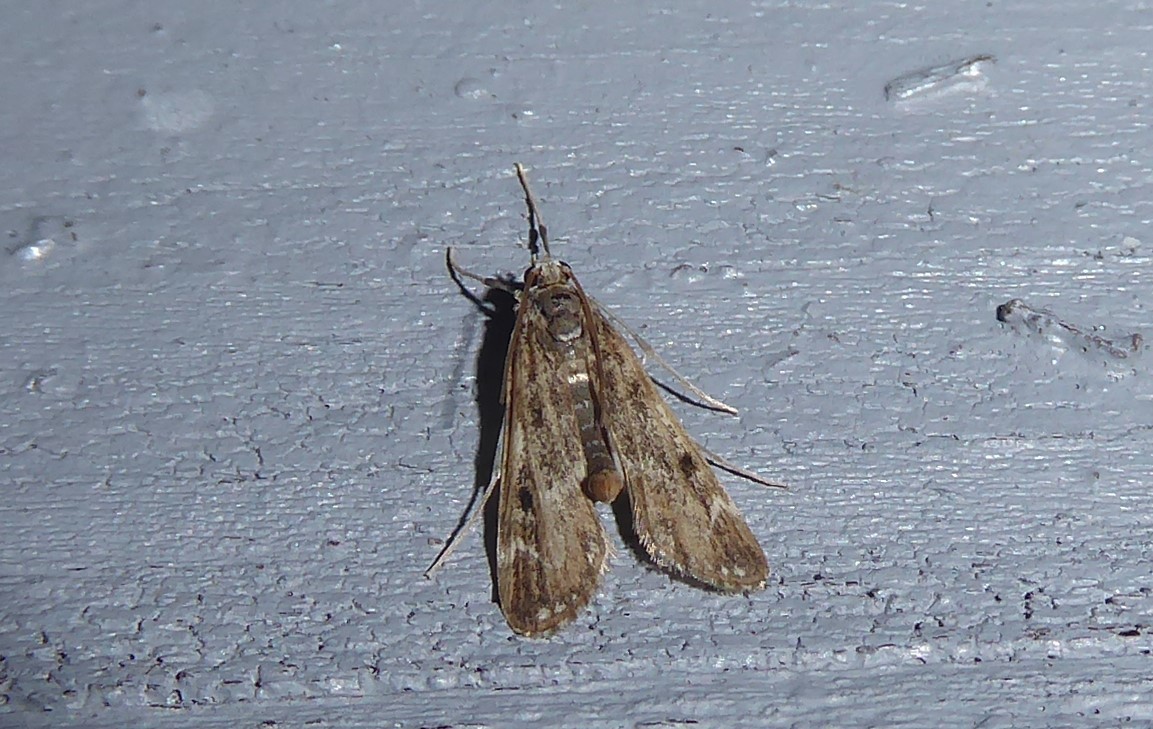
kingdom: Animalia
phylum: Arthropoda
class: Insecta
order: Lepidoptera
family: Crambidae
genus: Hygraula
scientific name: Hygraula nitens
